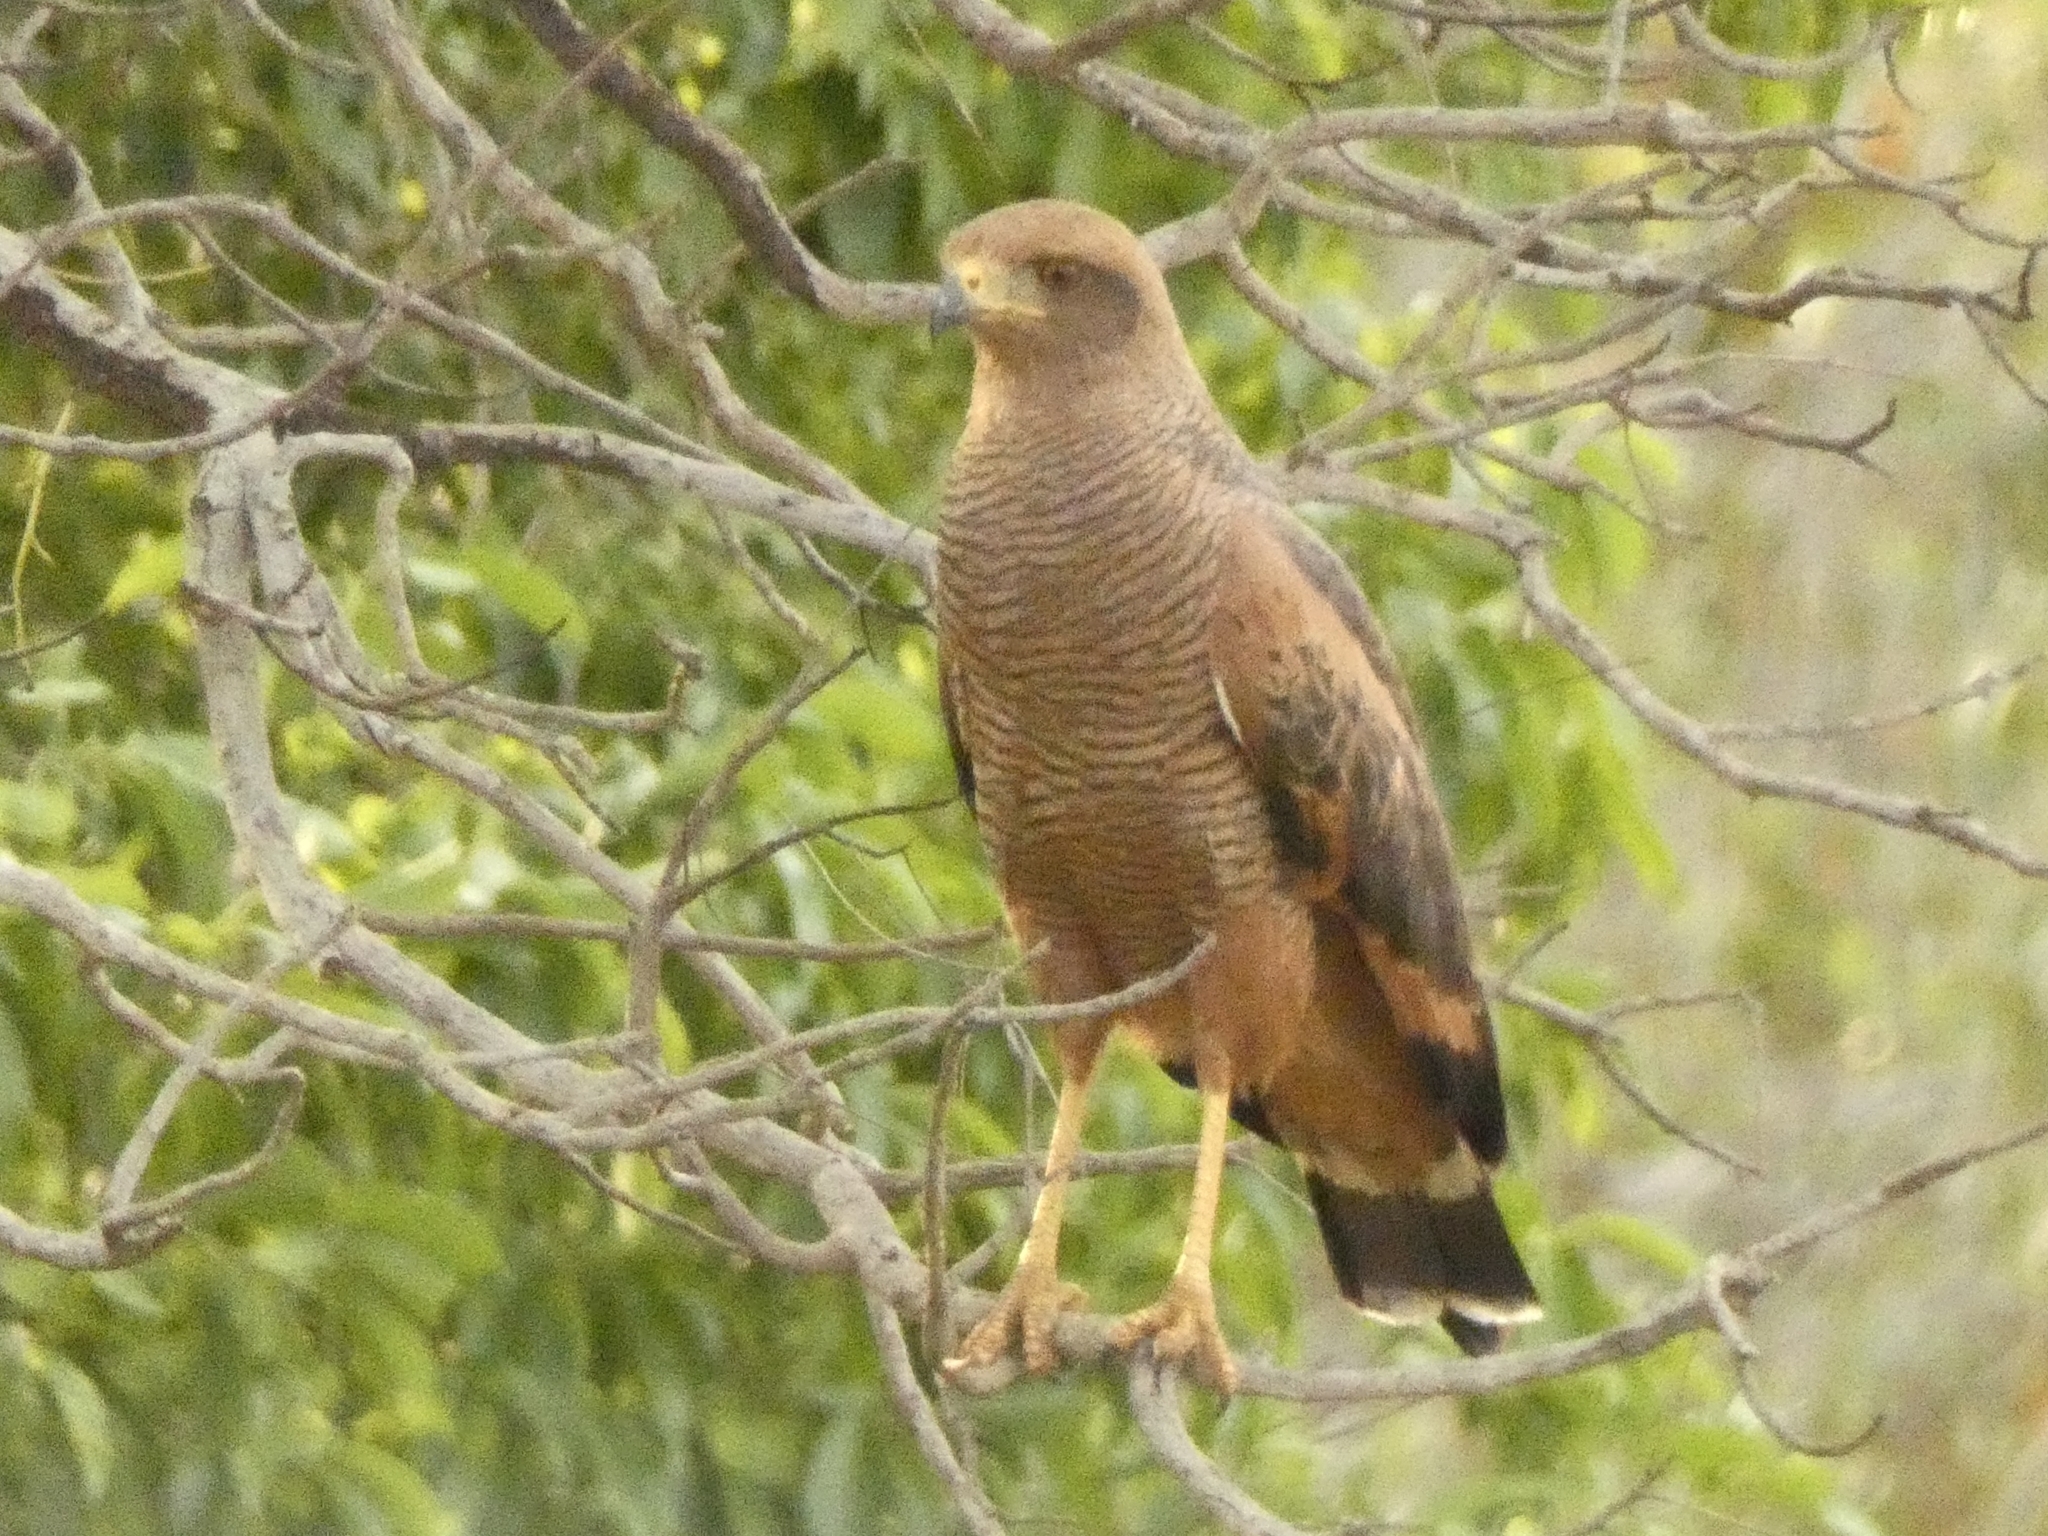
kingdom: Animalia
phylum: Chordata
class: Aves
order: Accipitriformes
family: Accipitridae
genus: Buteogallus
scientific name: Buteogallus meridionalis
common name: Savanna hawk
